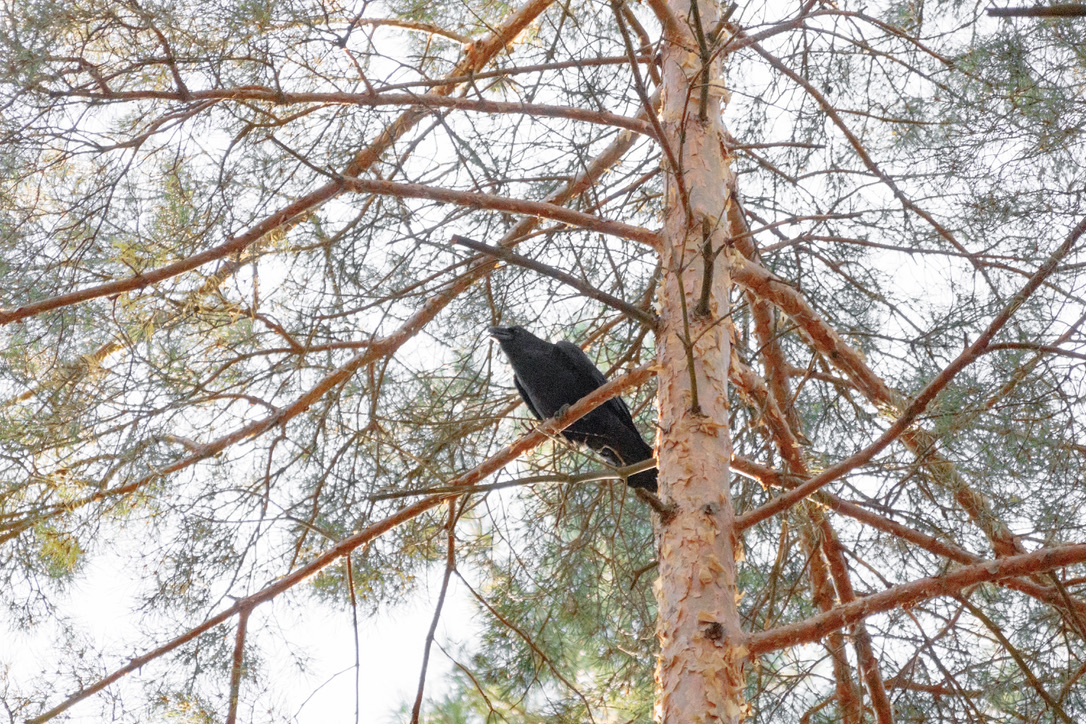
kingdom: Animalia
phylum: Chordata
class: Aves
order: Passeriformes
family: Corvidae
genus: Corvus
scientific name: Corvus corax
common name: Common raven
